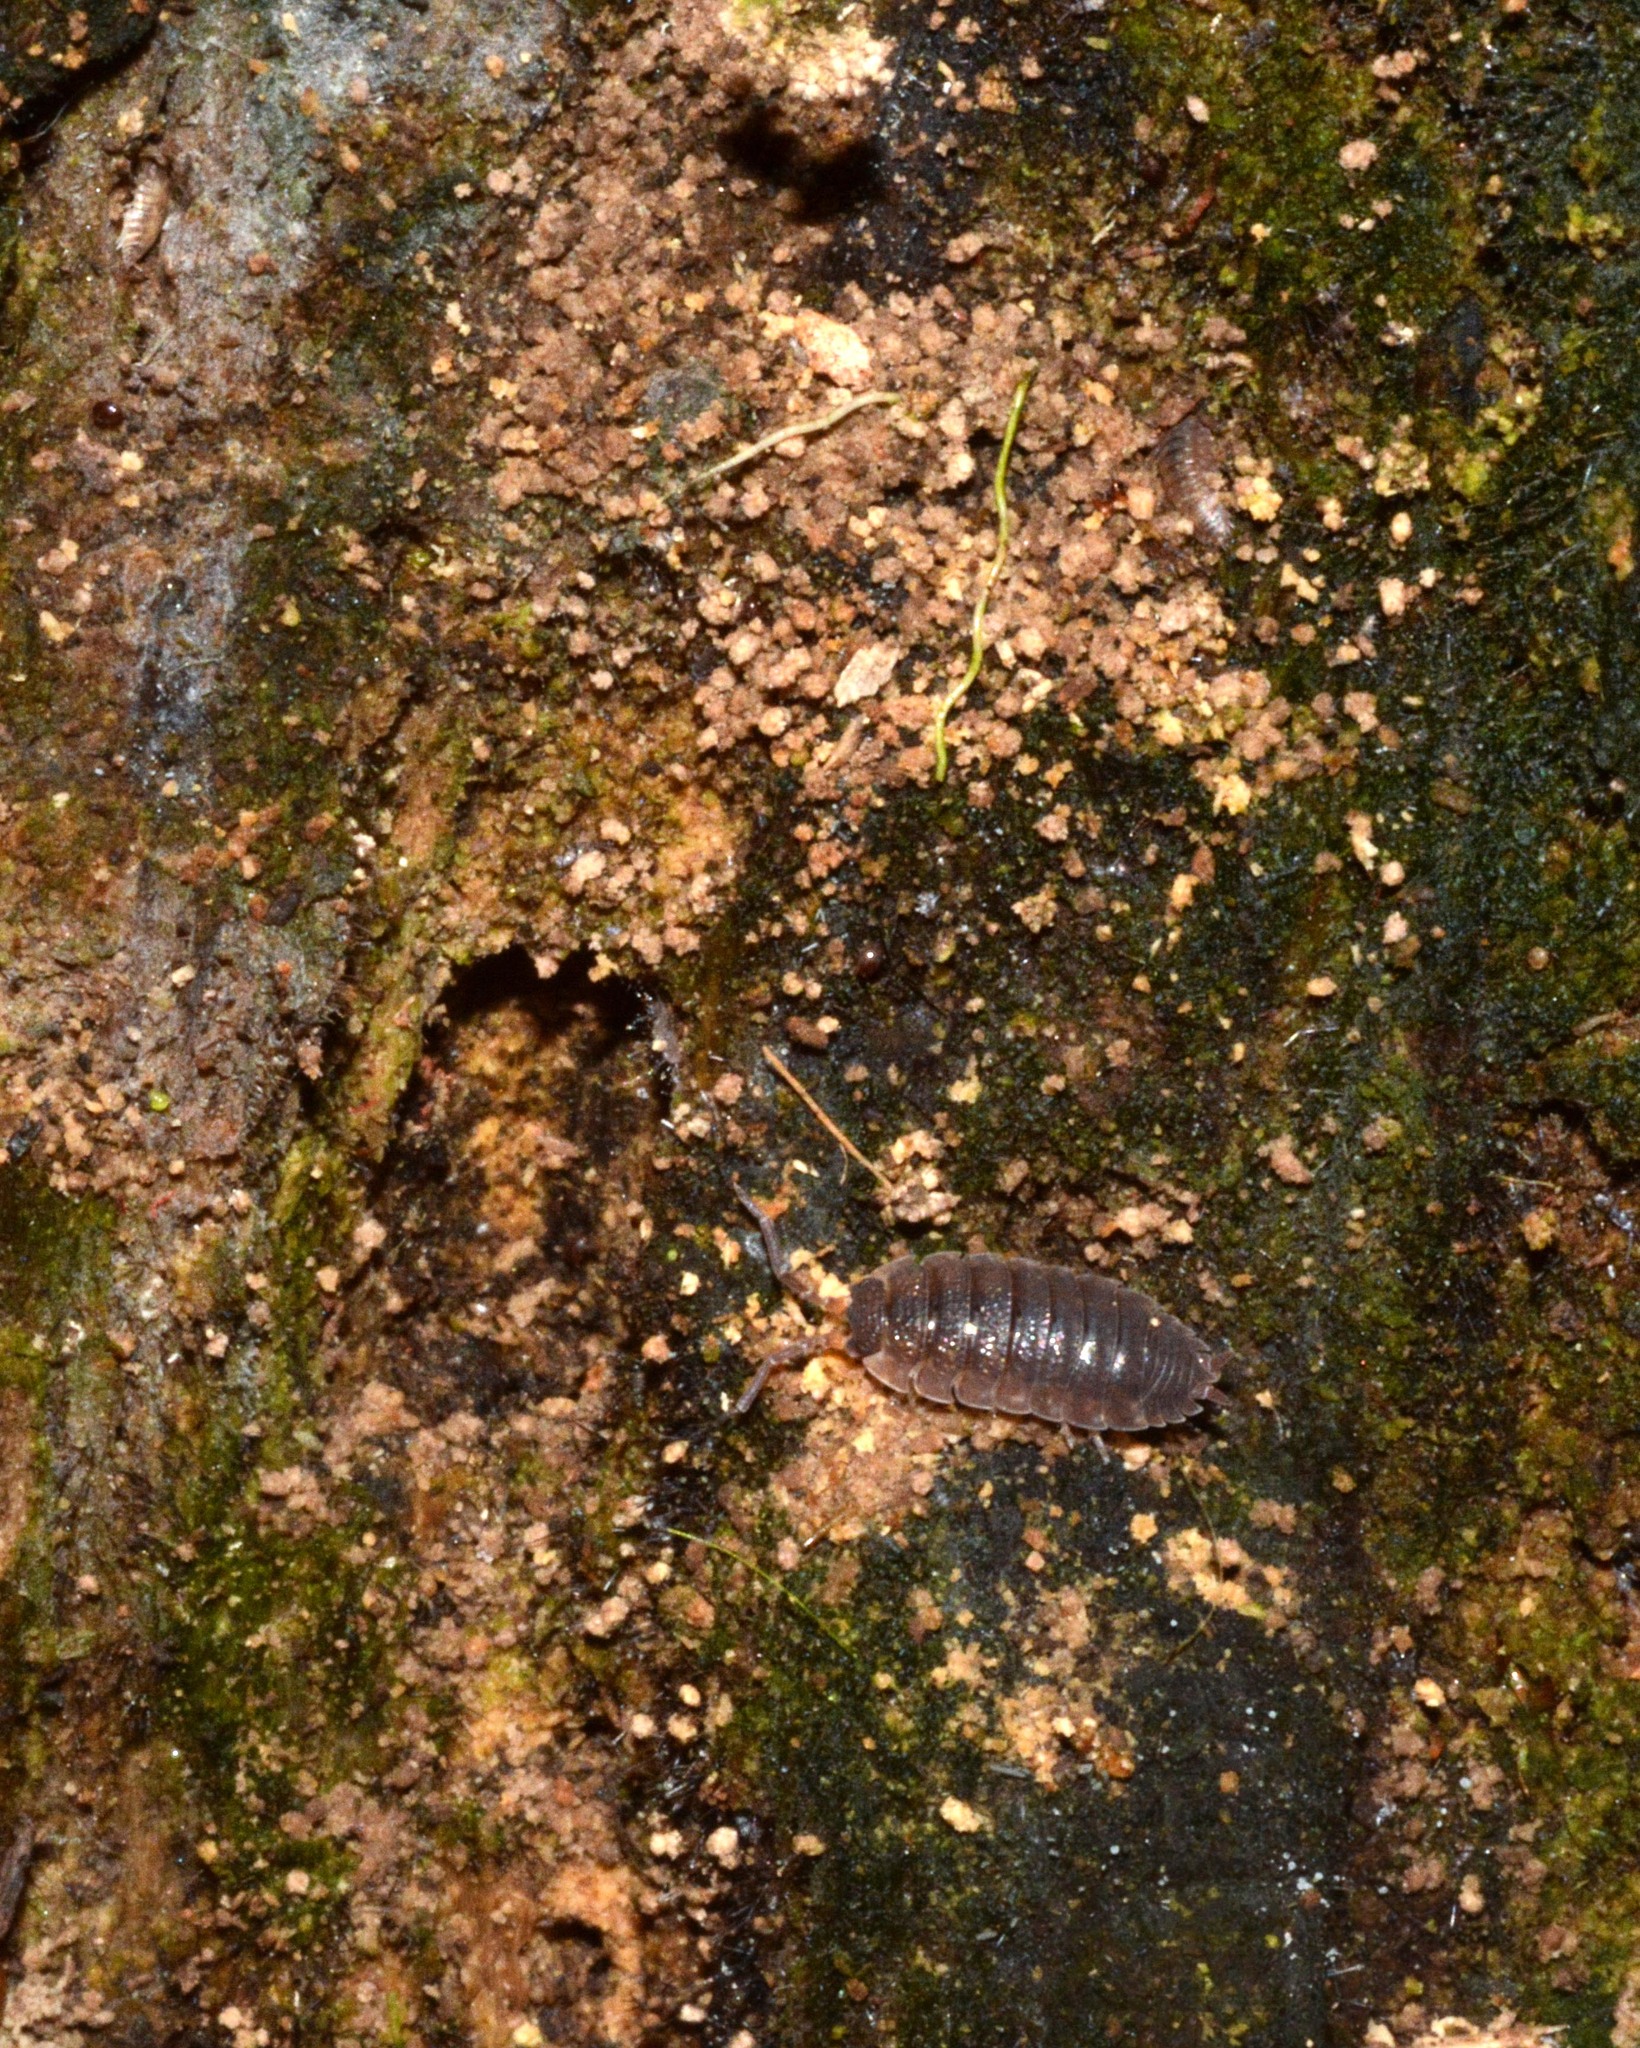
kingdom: Animalia
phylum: Arthropoda
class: Malacostraca
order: Isopoda
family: Porcellionidae
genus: Porcellio
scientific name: Porcellio scaber
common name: Common rough woodlouse
